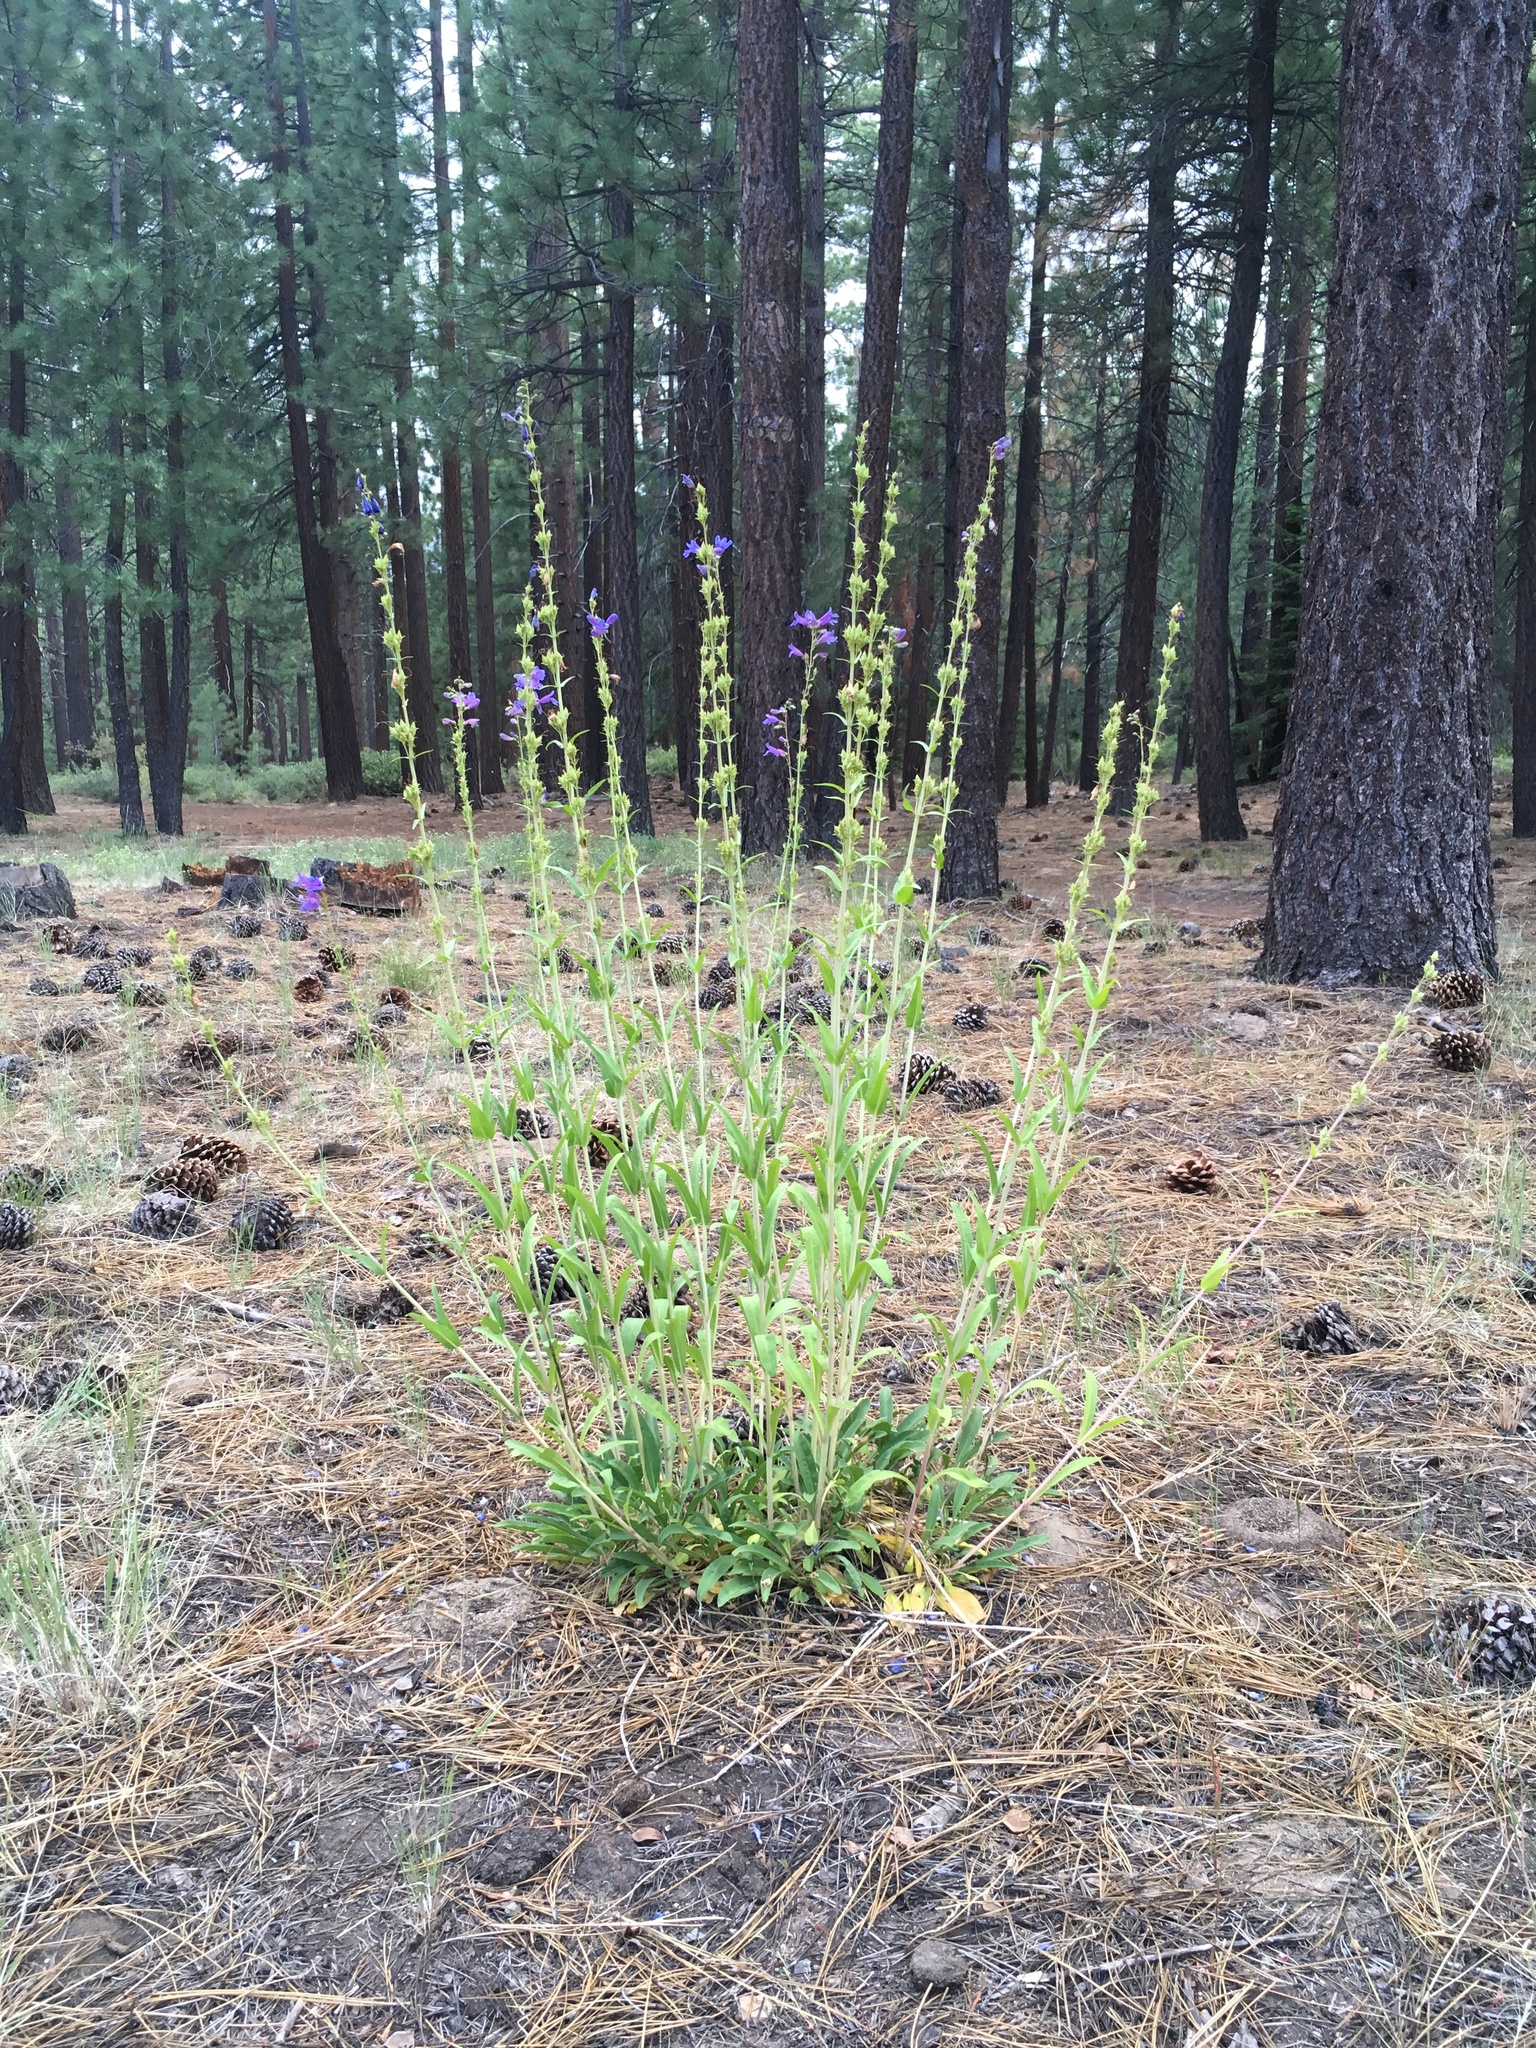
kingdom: Plantae
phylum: Tracheophyta
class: Magnoliopsida
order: Lamiales
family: Plantaginaceae
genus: Penstemon
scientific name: Penstemon subglaber
